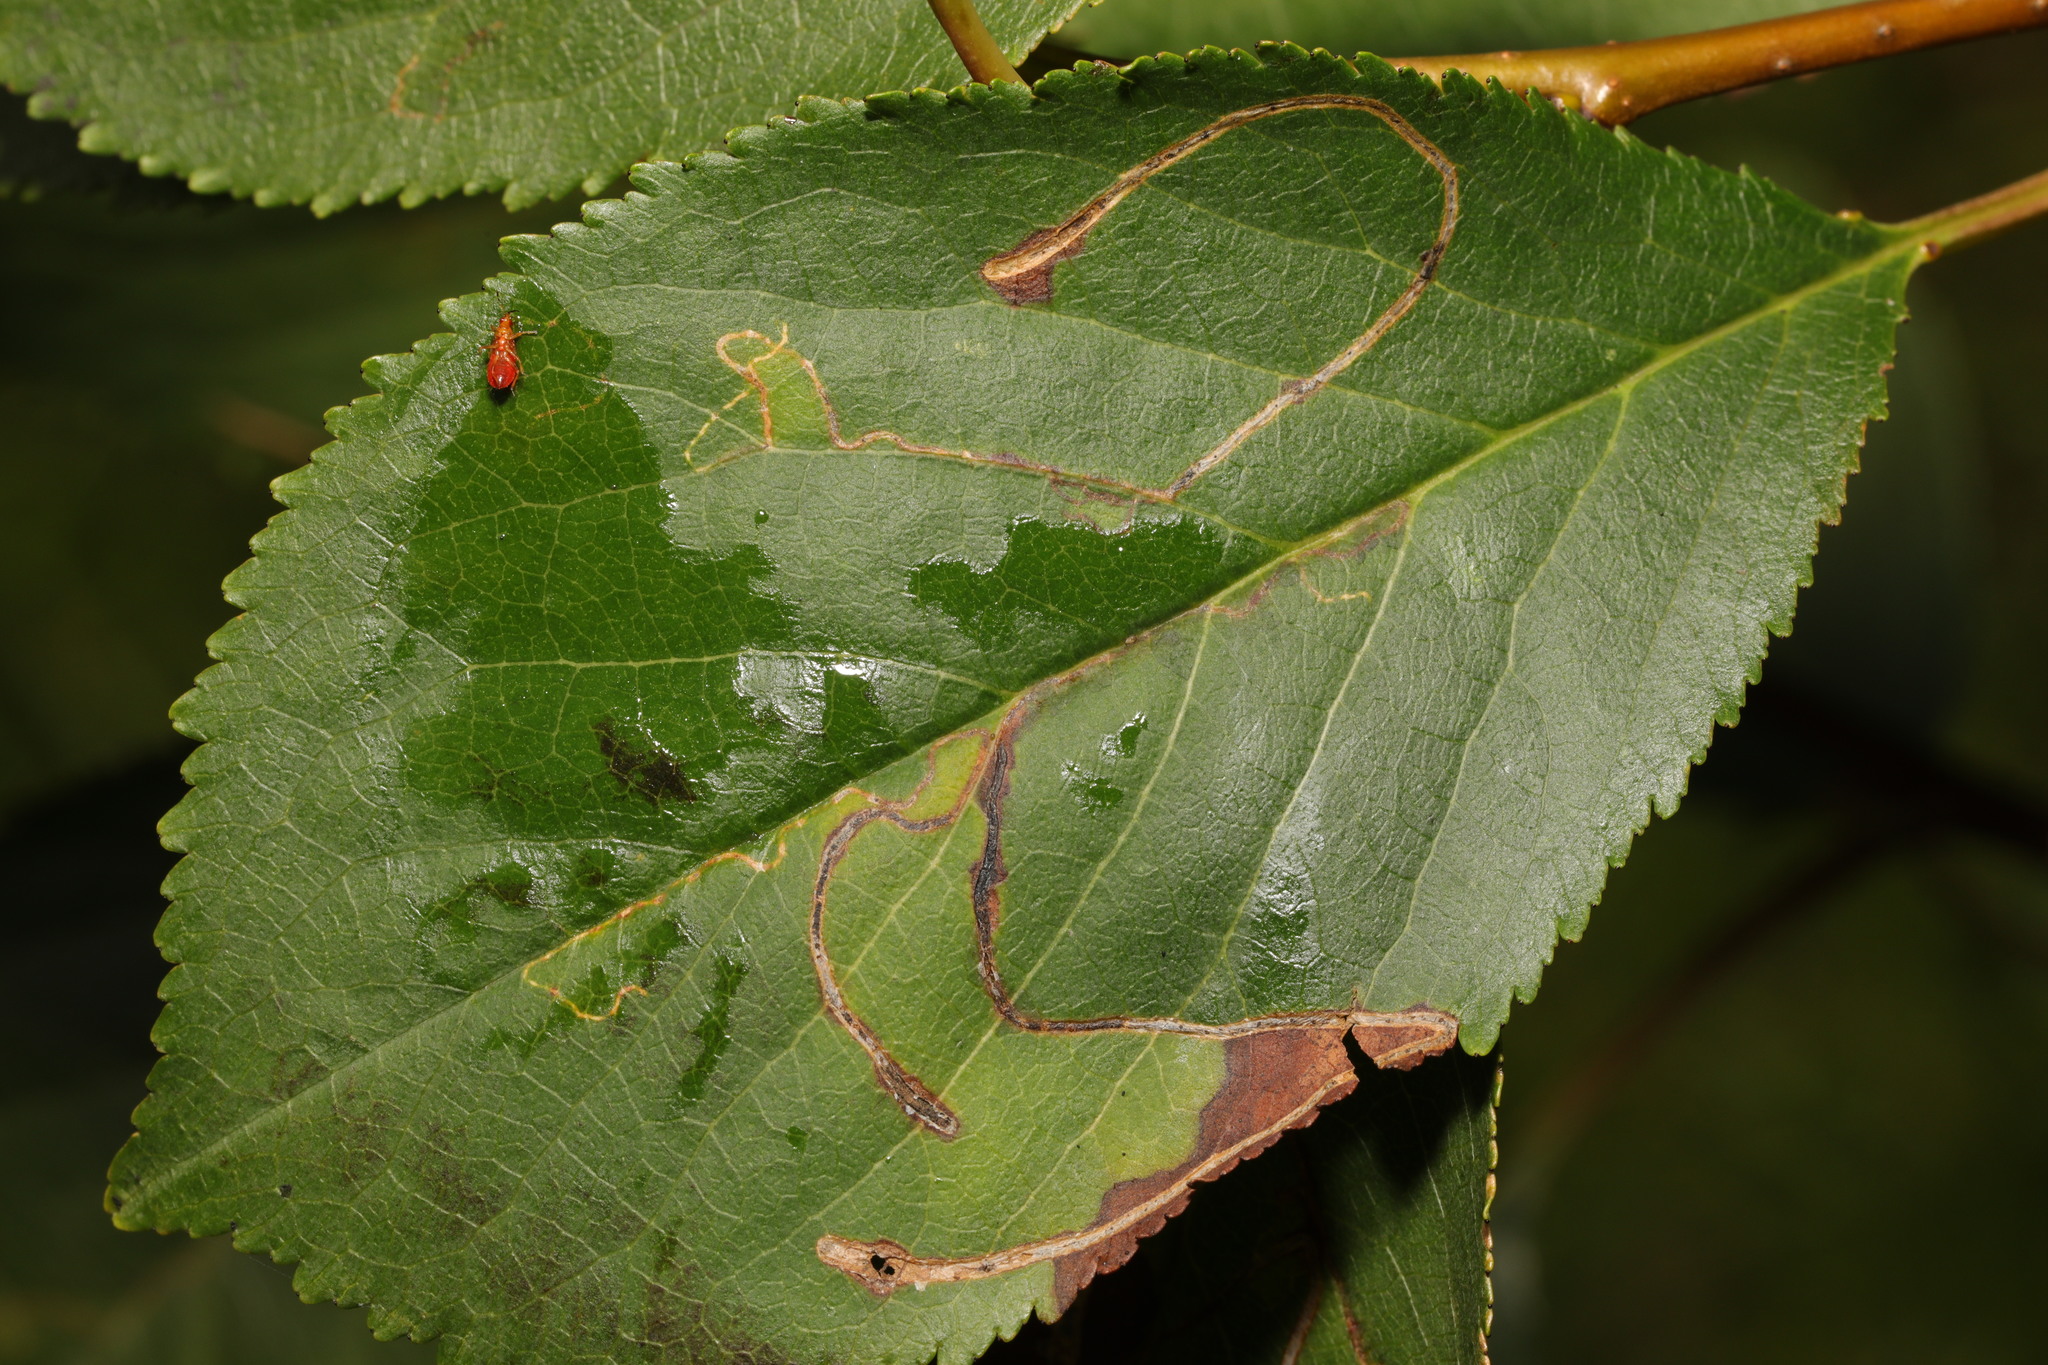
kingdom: Animalia
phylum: Arthropoda
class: Insecta
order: Lepidoptera
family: Lyonetiidae
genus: Lyonetia
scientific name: Lyonetia clerkella
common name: Apple leaf miner
